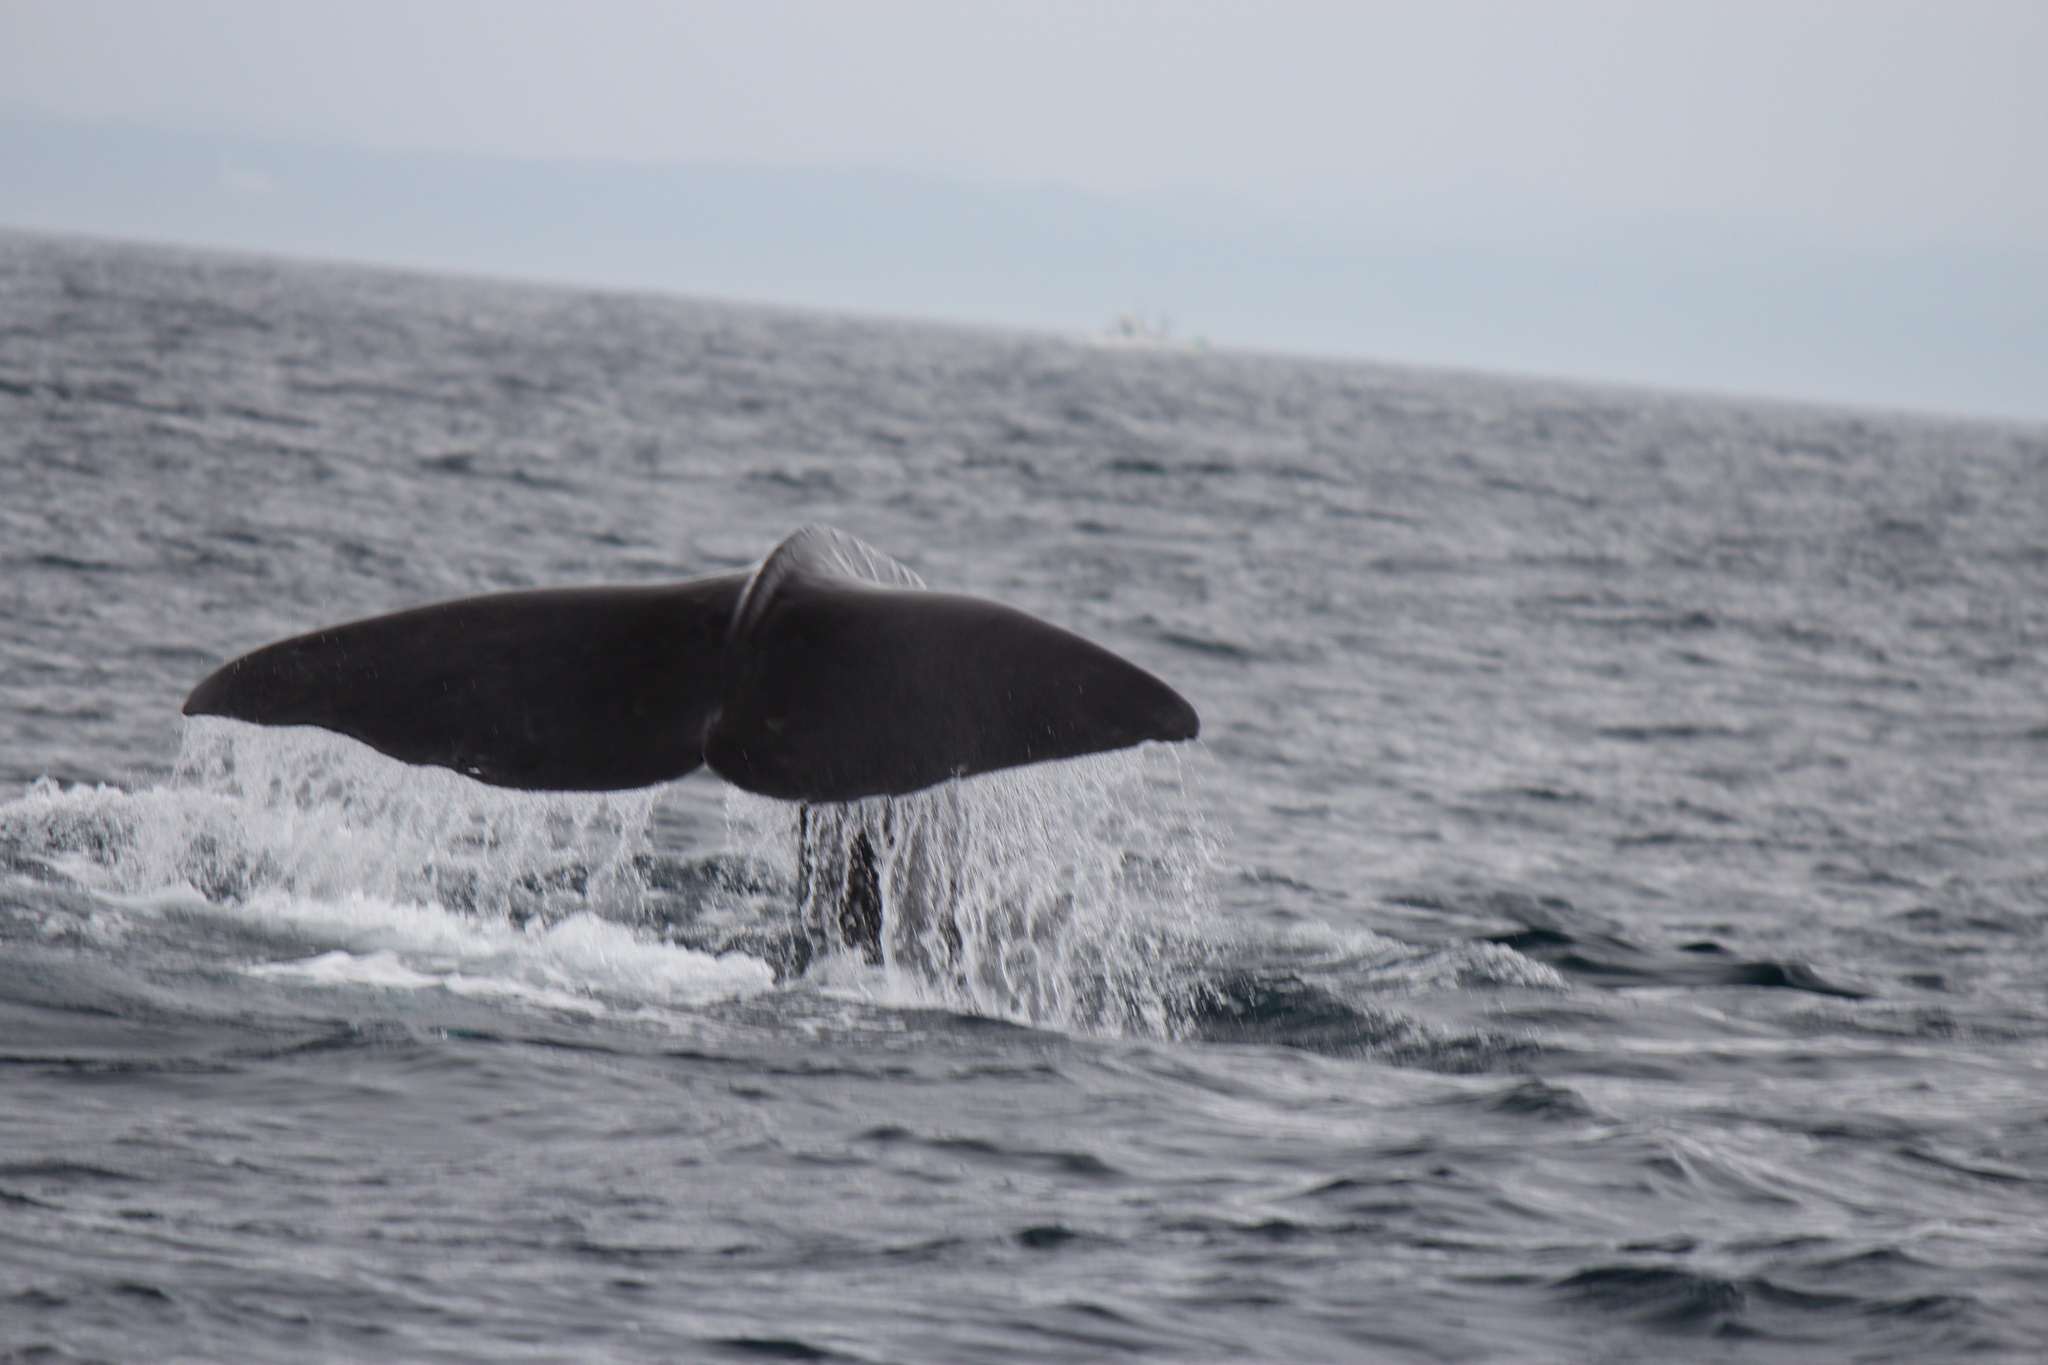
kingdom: Animalia
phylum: Chordata
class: Mammalia
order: Cetacea
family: Physeteridae
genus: Physeter
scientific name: Physeter macrocephalus
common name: Sperm whale
